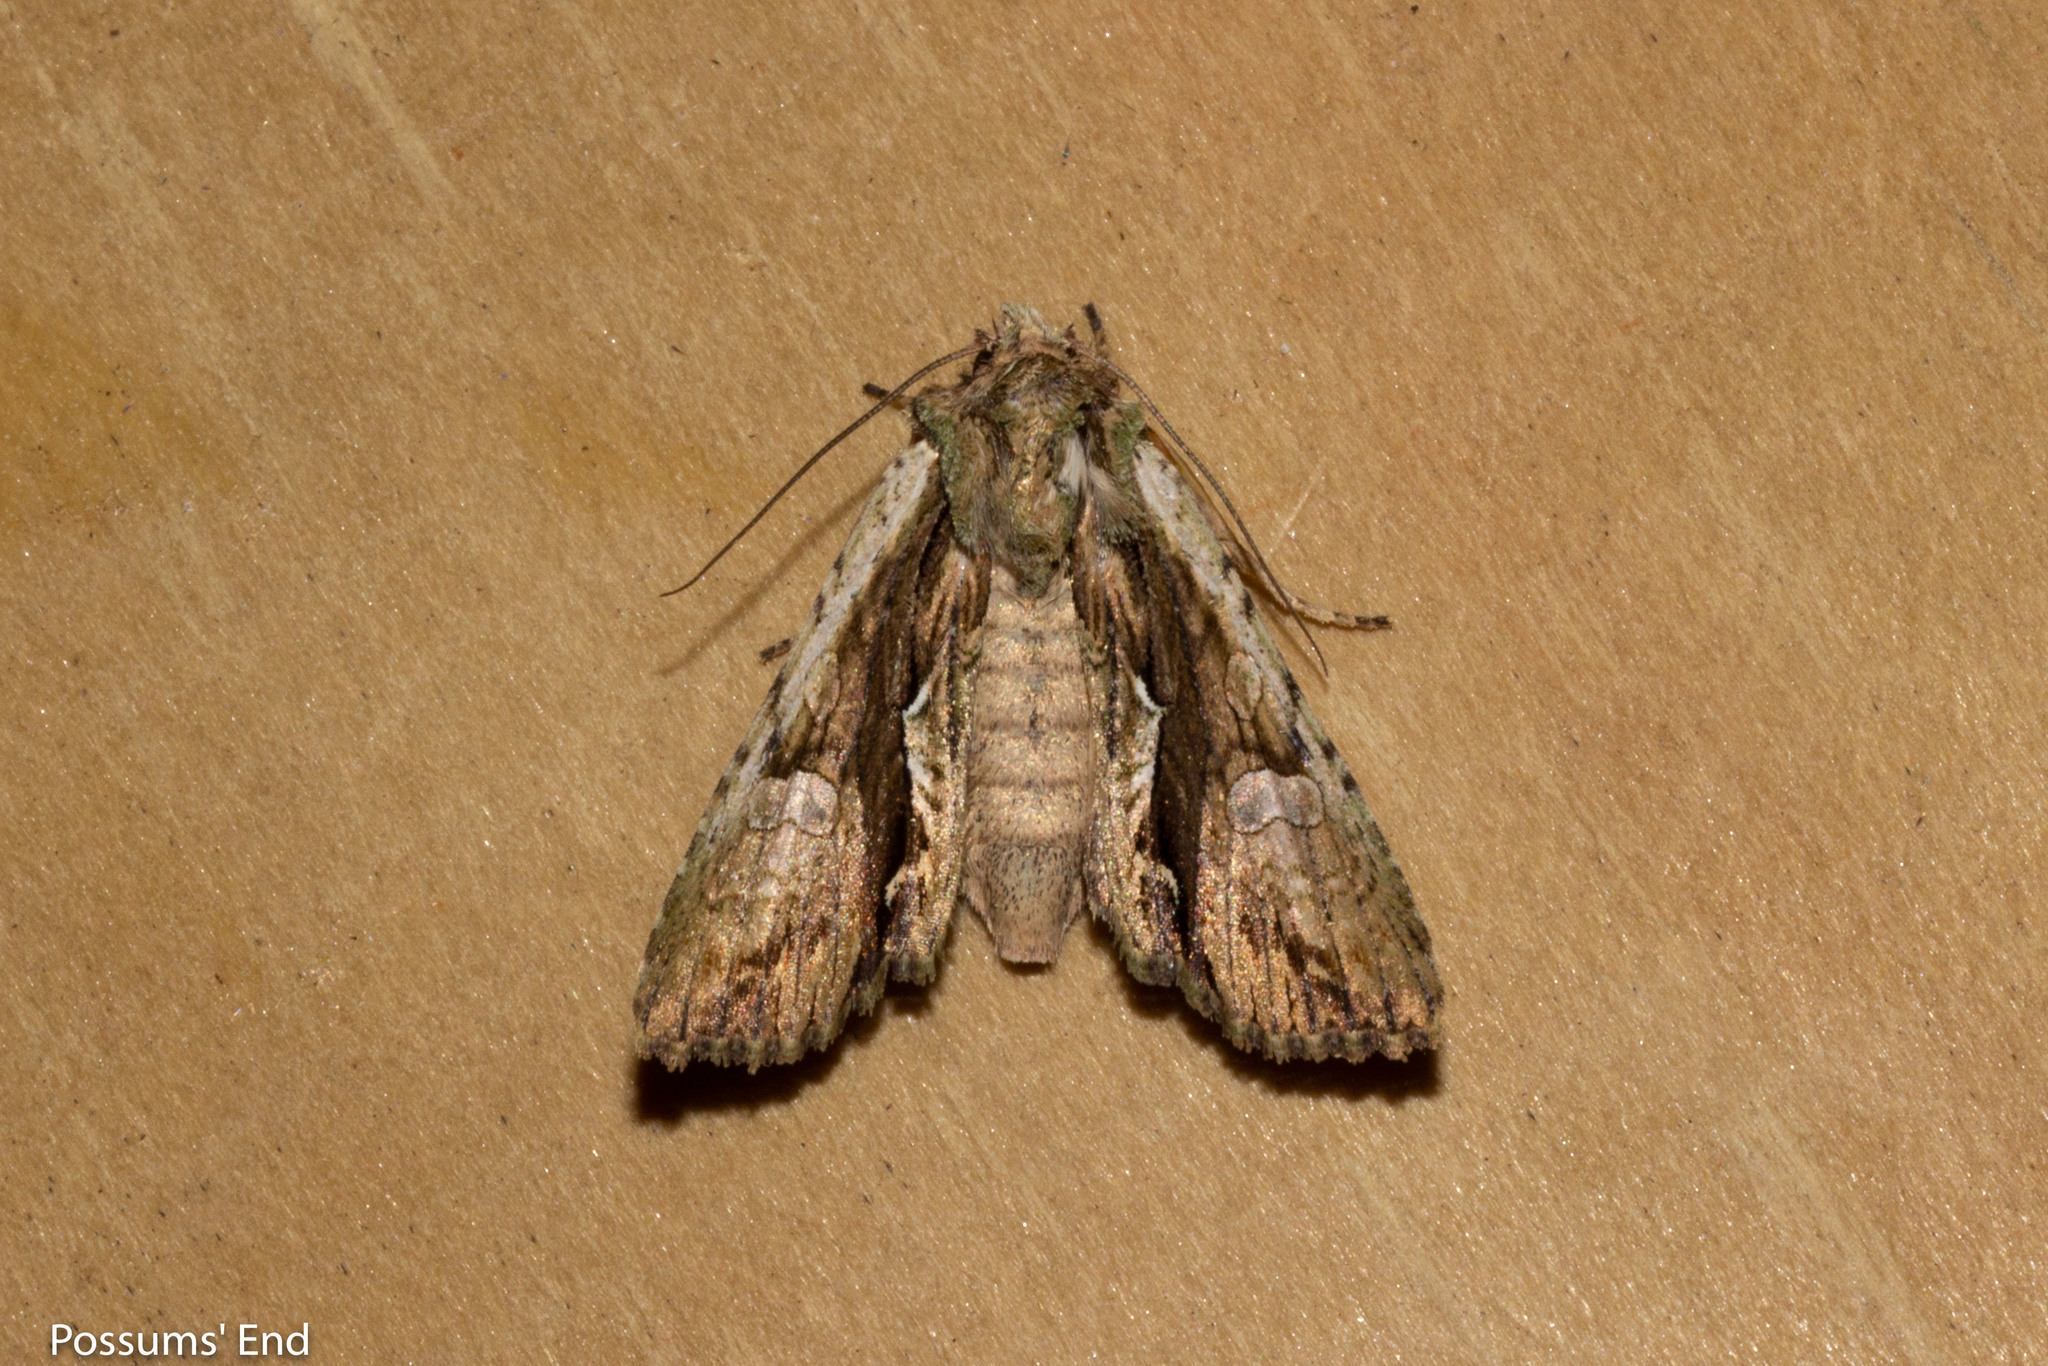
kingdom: Animalia
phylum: Arthropoda
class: Insecta
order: Lepidoptera
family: Noctuidae
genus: Meterana
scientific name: Meterana decorata
